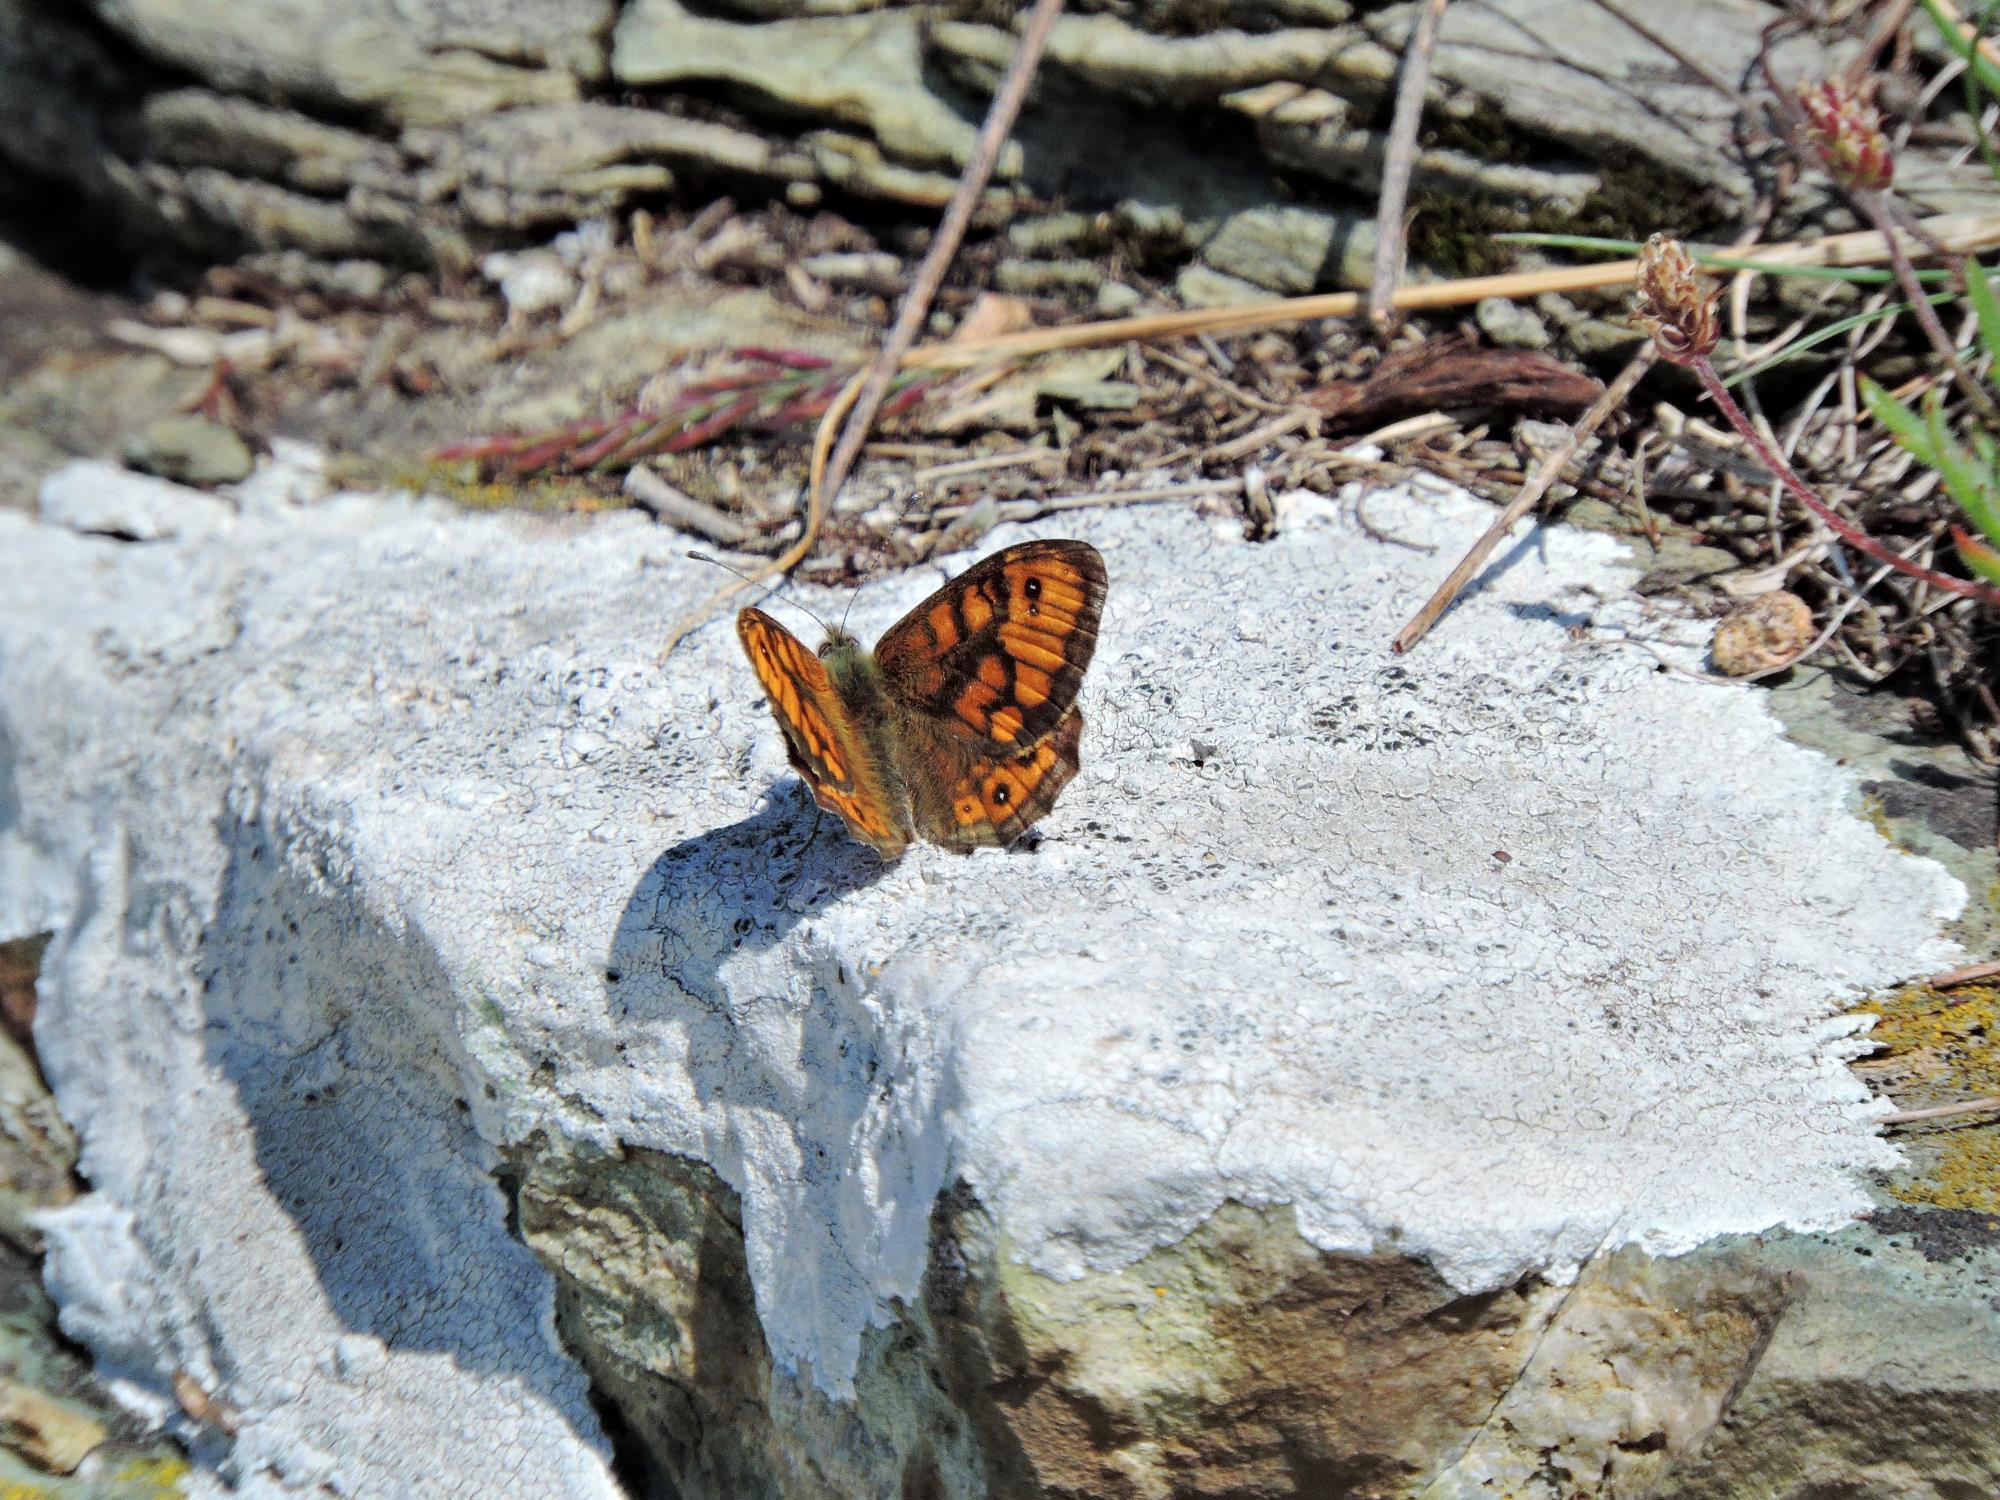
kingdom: Animalia
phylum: Arthropoda
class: Insecta
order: Lepidoptera
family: Nymphalidae
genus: Pararge
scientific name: Pararge Lasiommata megera
